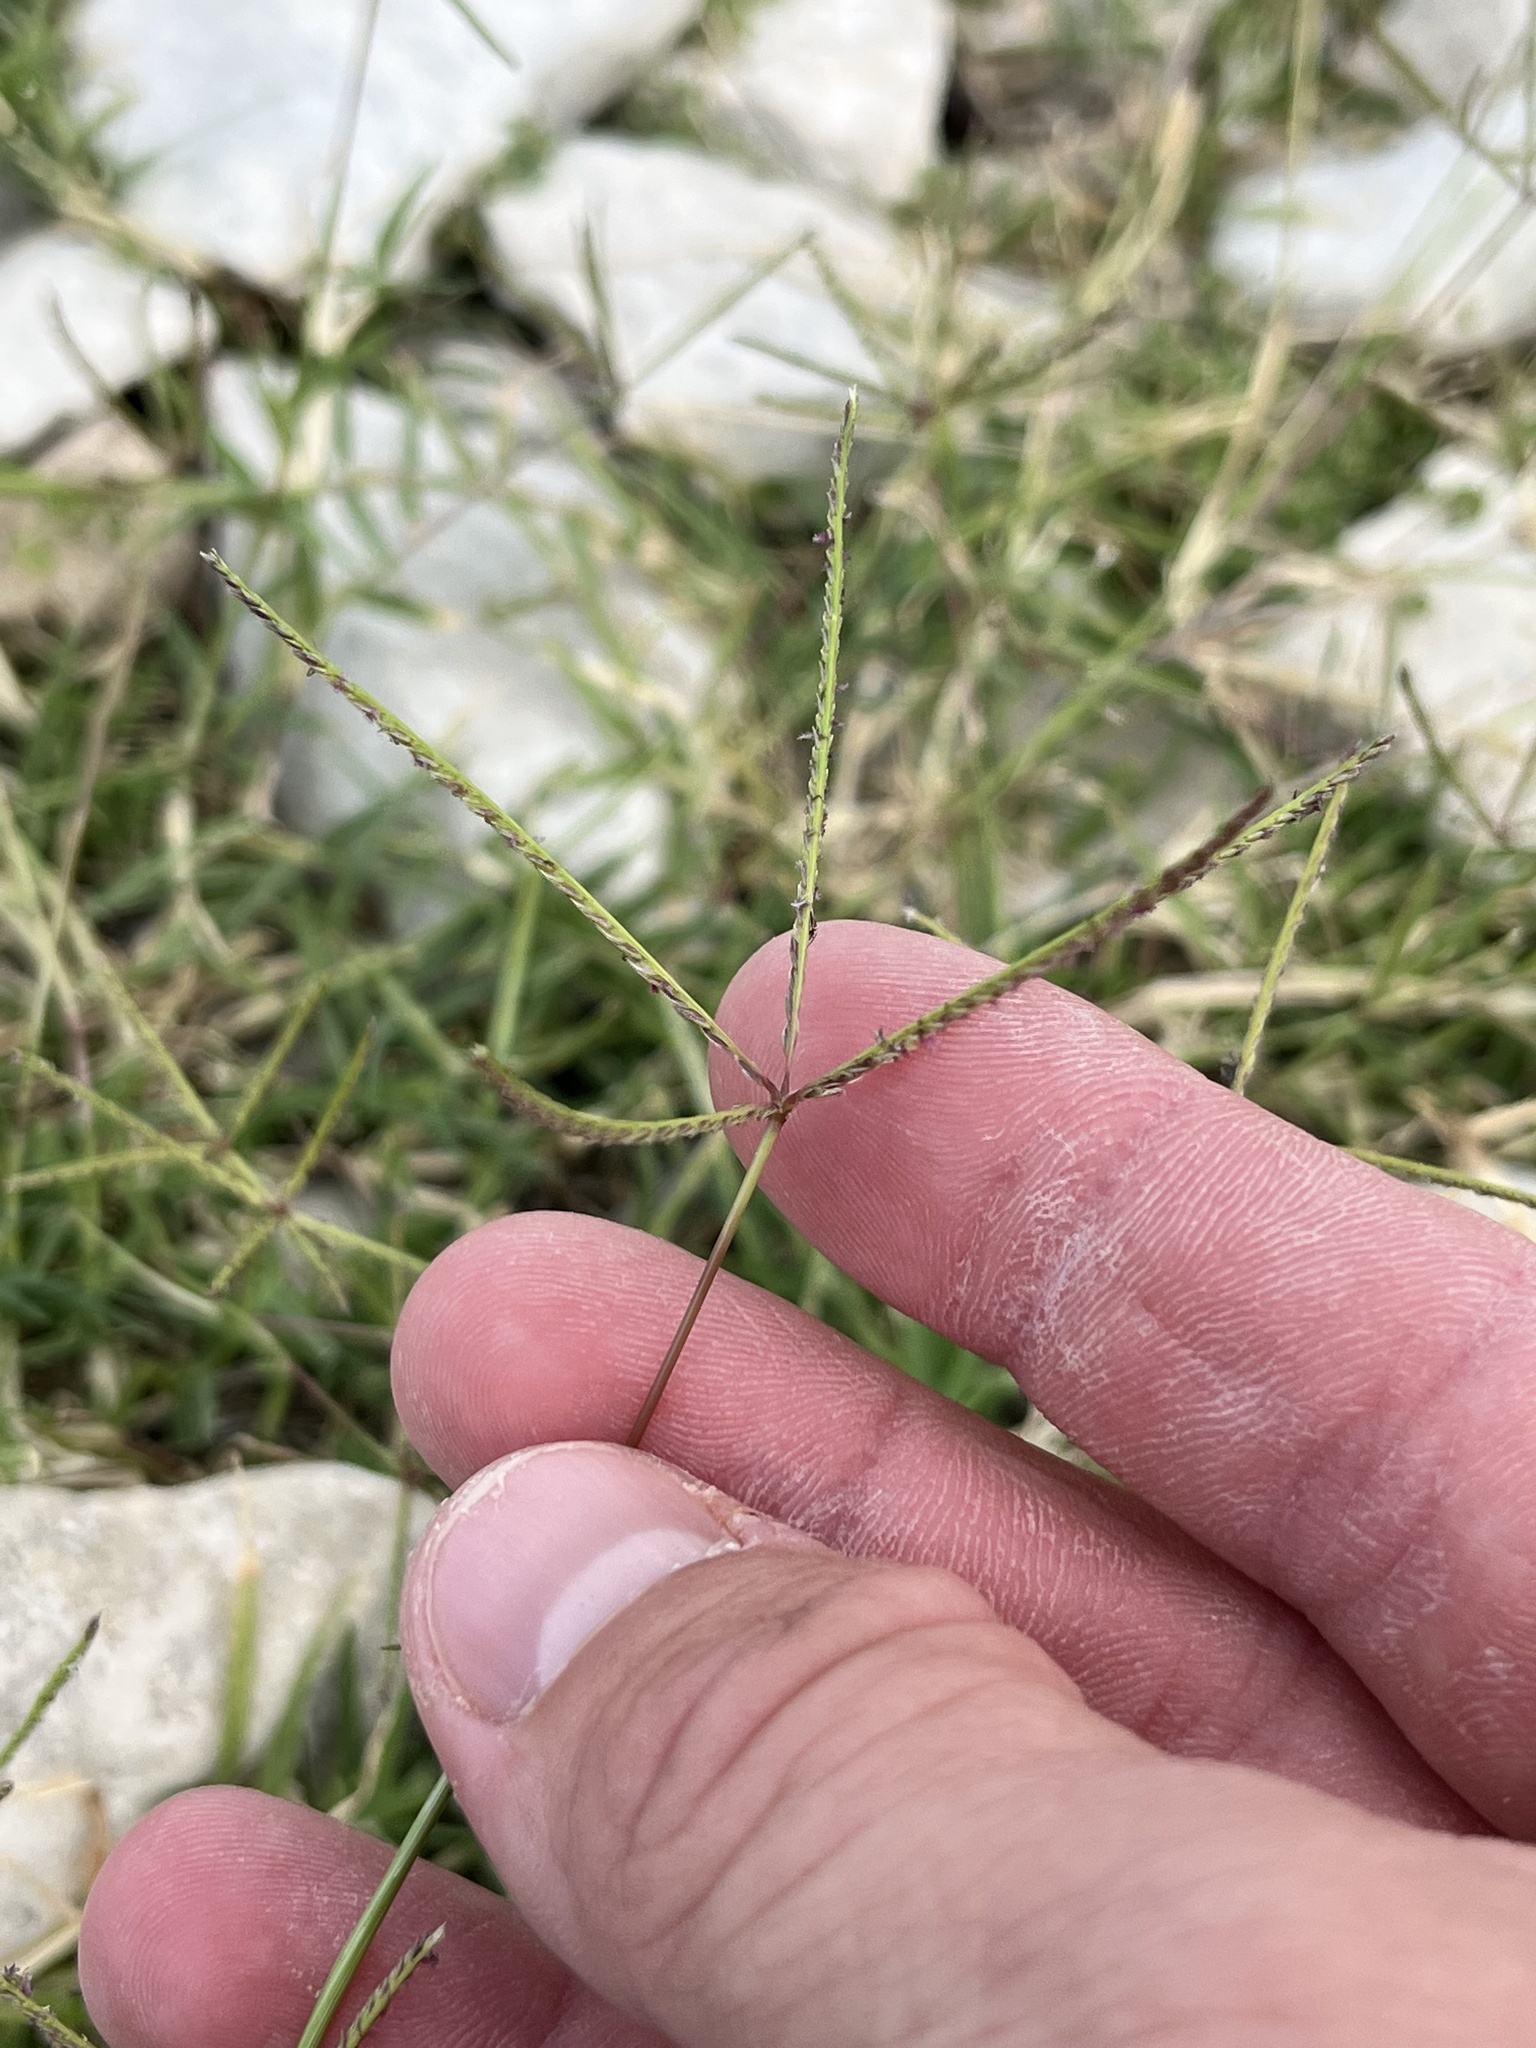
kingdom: Plantae
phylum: Tracheophyta
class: Liliopsida
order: Poales
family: Poaceae
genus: Cynodon
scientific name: Cynodon dactylon
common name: Bermuda grass
